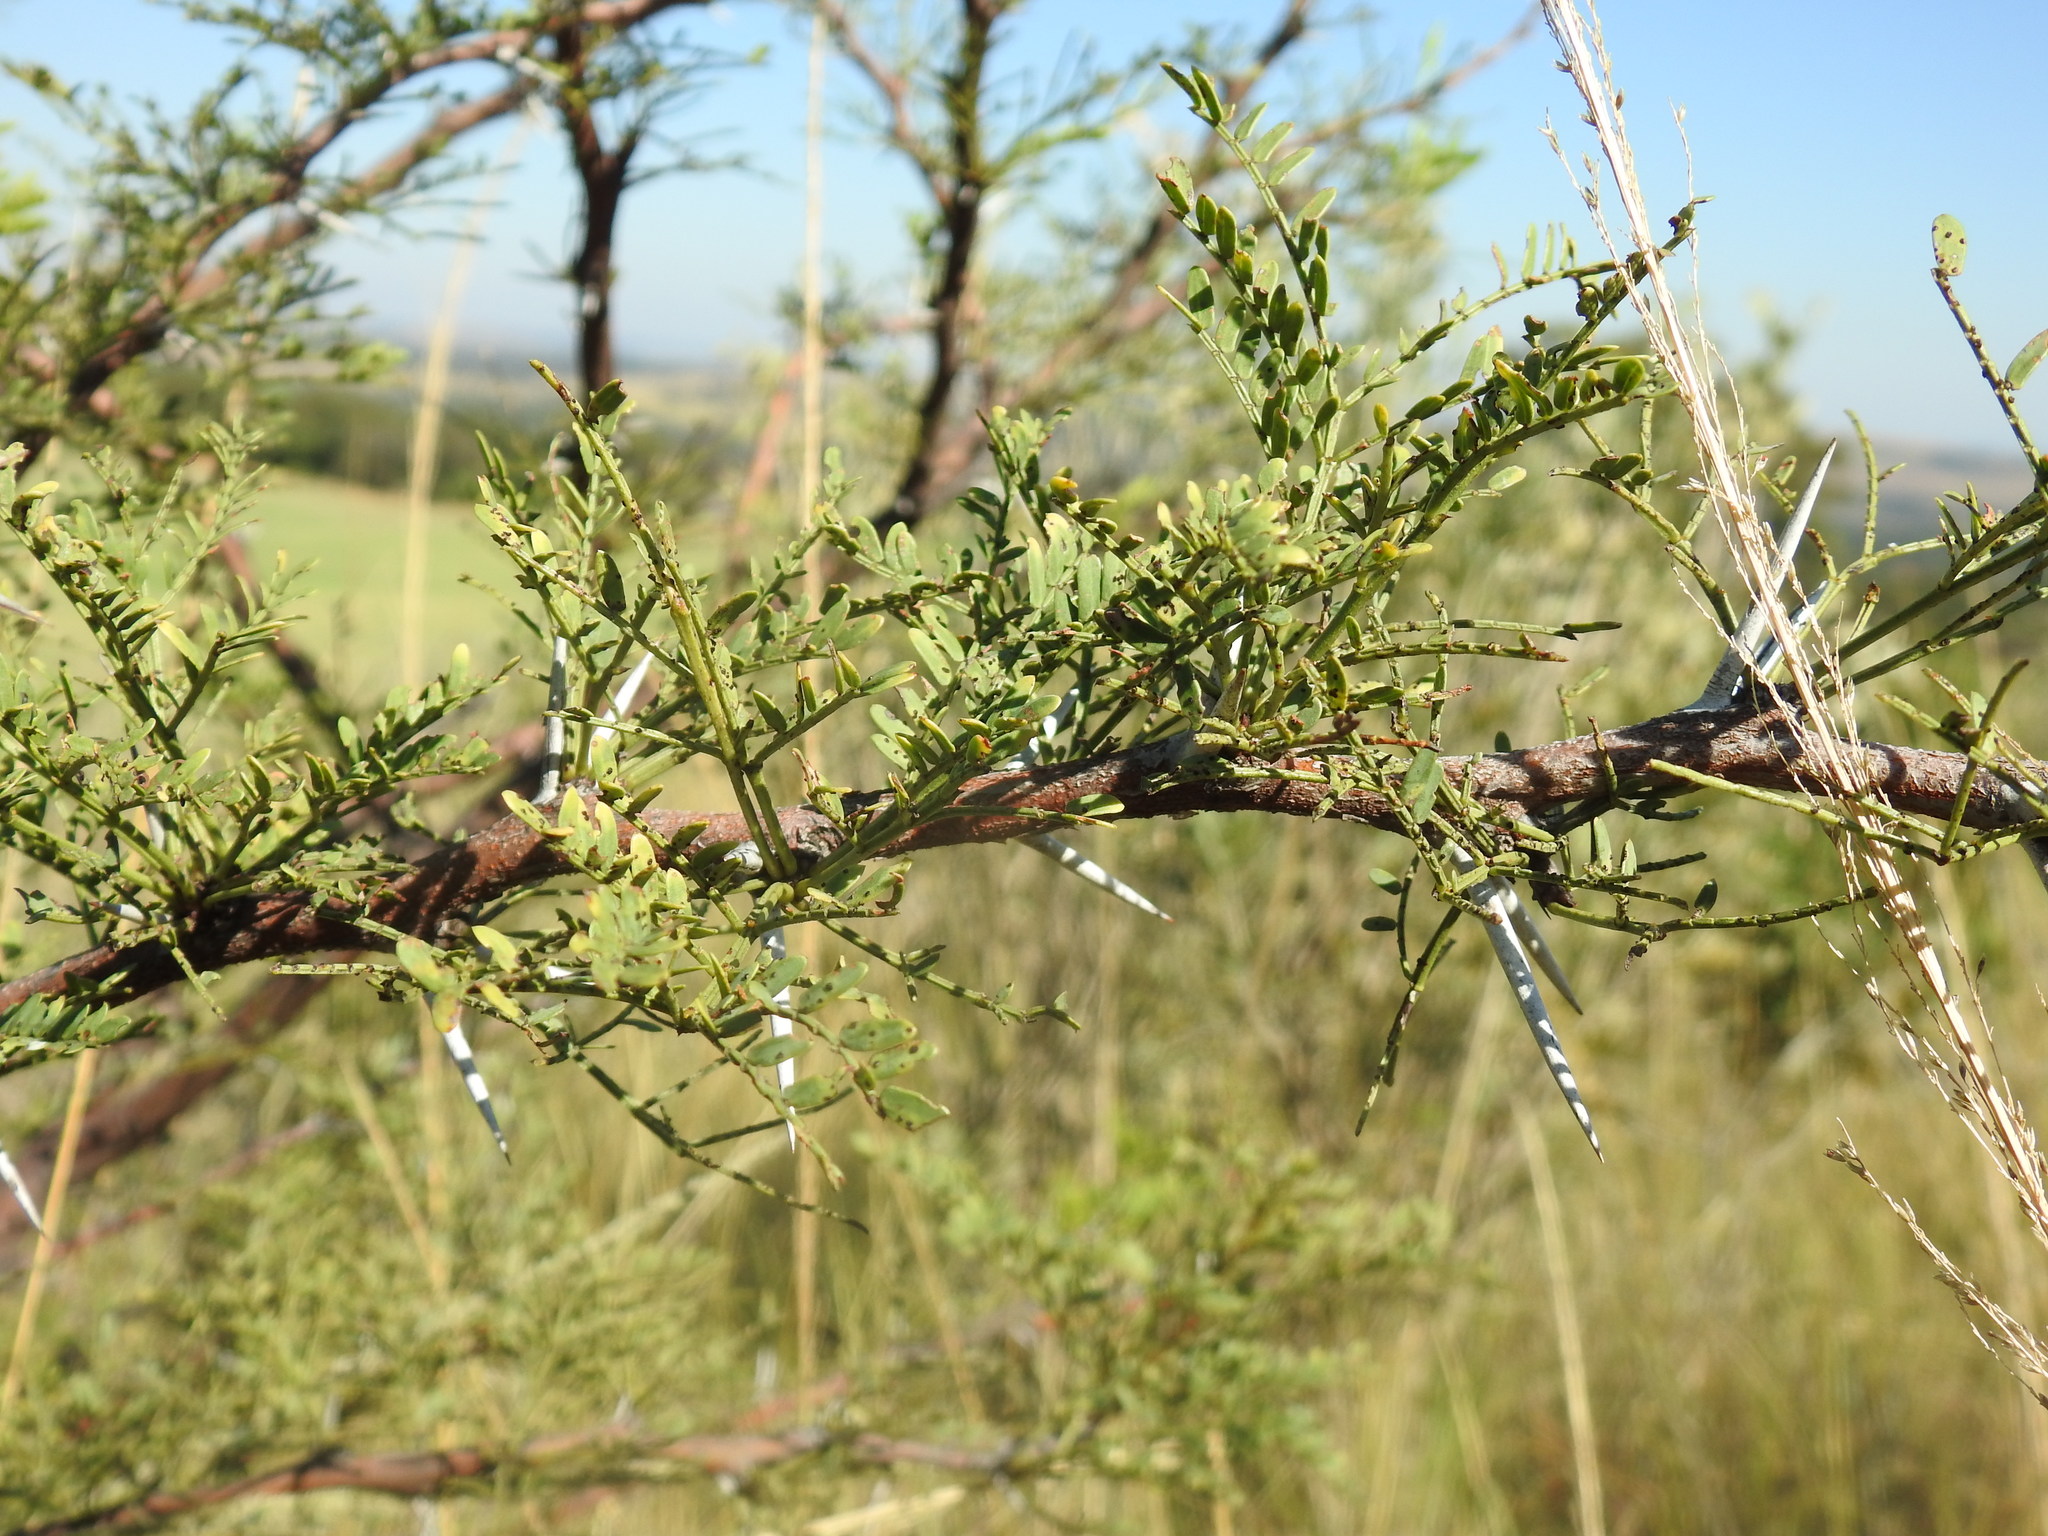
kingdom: Plantae
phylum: Tracheophyta
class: Magnoliopsida
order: Fabales
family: Fabaceae
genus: Vachellia
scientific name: Vachellia robusta
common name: Ankle thorn
